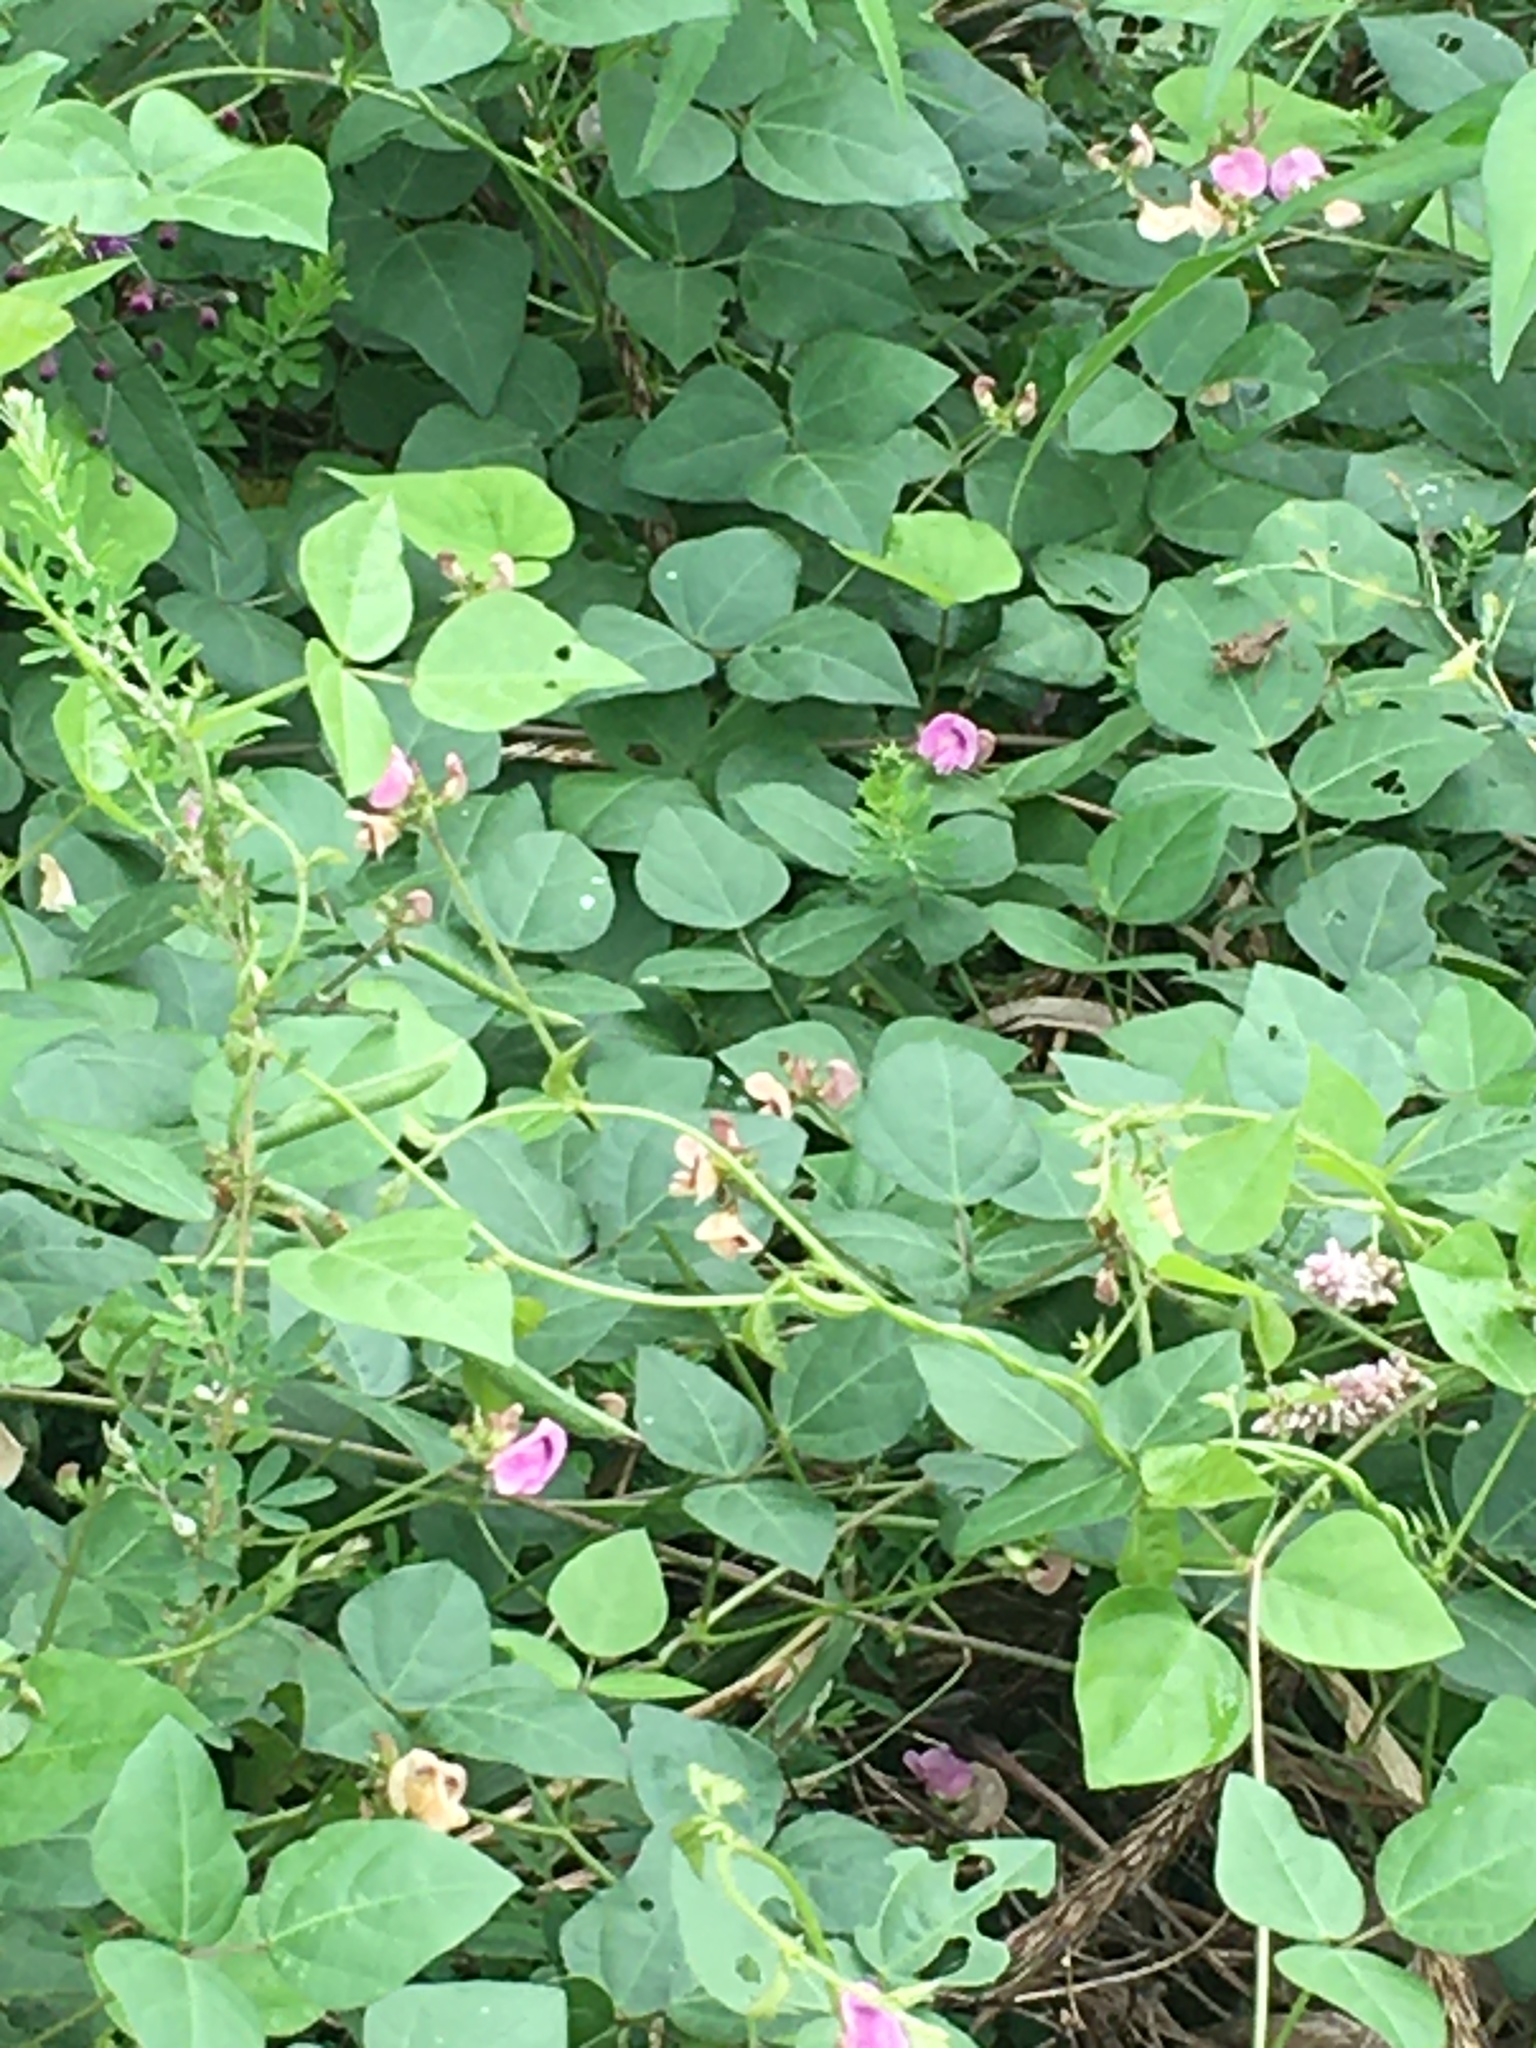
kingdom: Plantae
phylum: Tracheophyta
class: Magnoliopsida
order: Fabales
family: Fabaceae
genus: Strophostyles
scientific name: Strophostyles helvola
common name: Trailing wild bean
